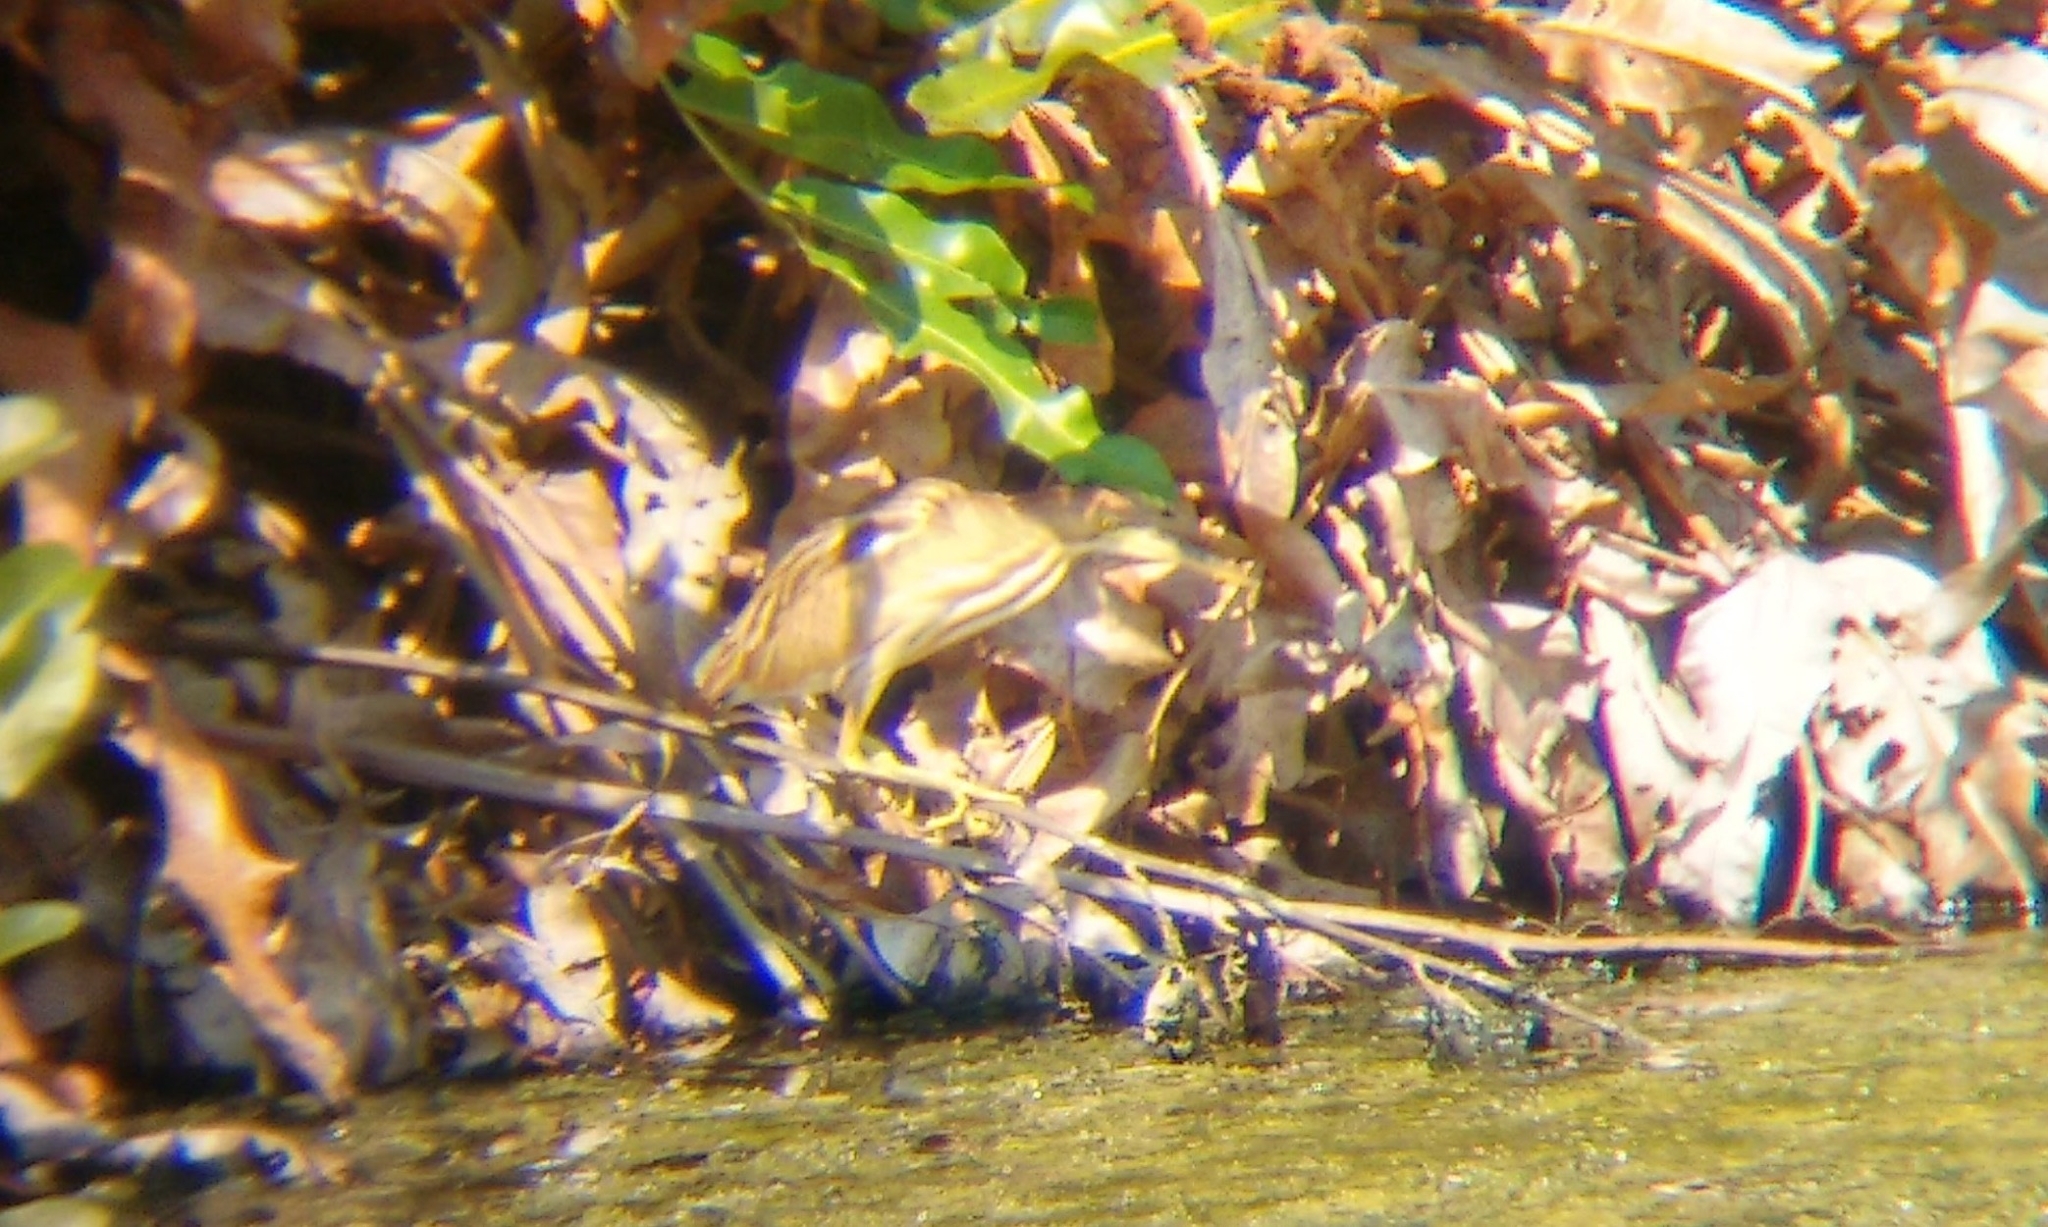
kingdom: Animalia
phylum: Chordata
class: Aves
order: Pelecaniformes
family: Ardeidae
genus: Ixobrychus
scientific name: Ixobrychus sinensis
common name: Yellow bittern
